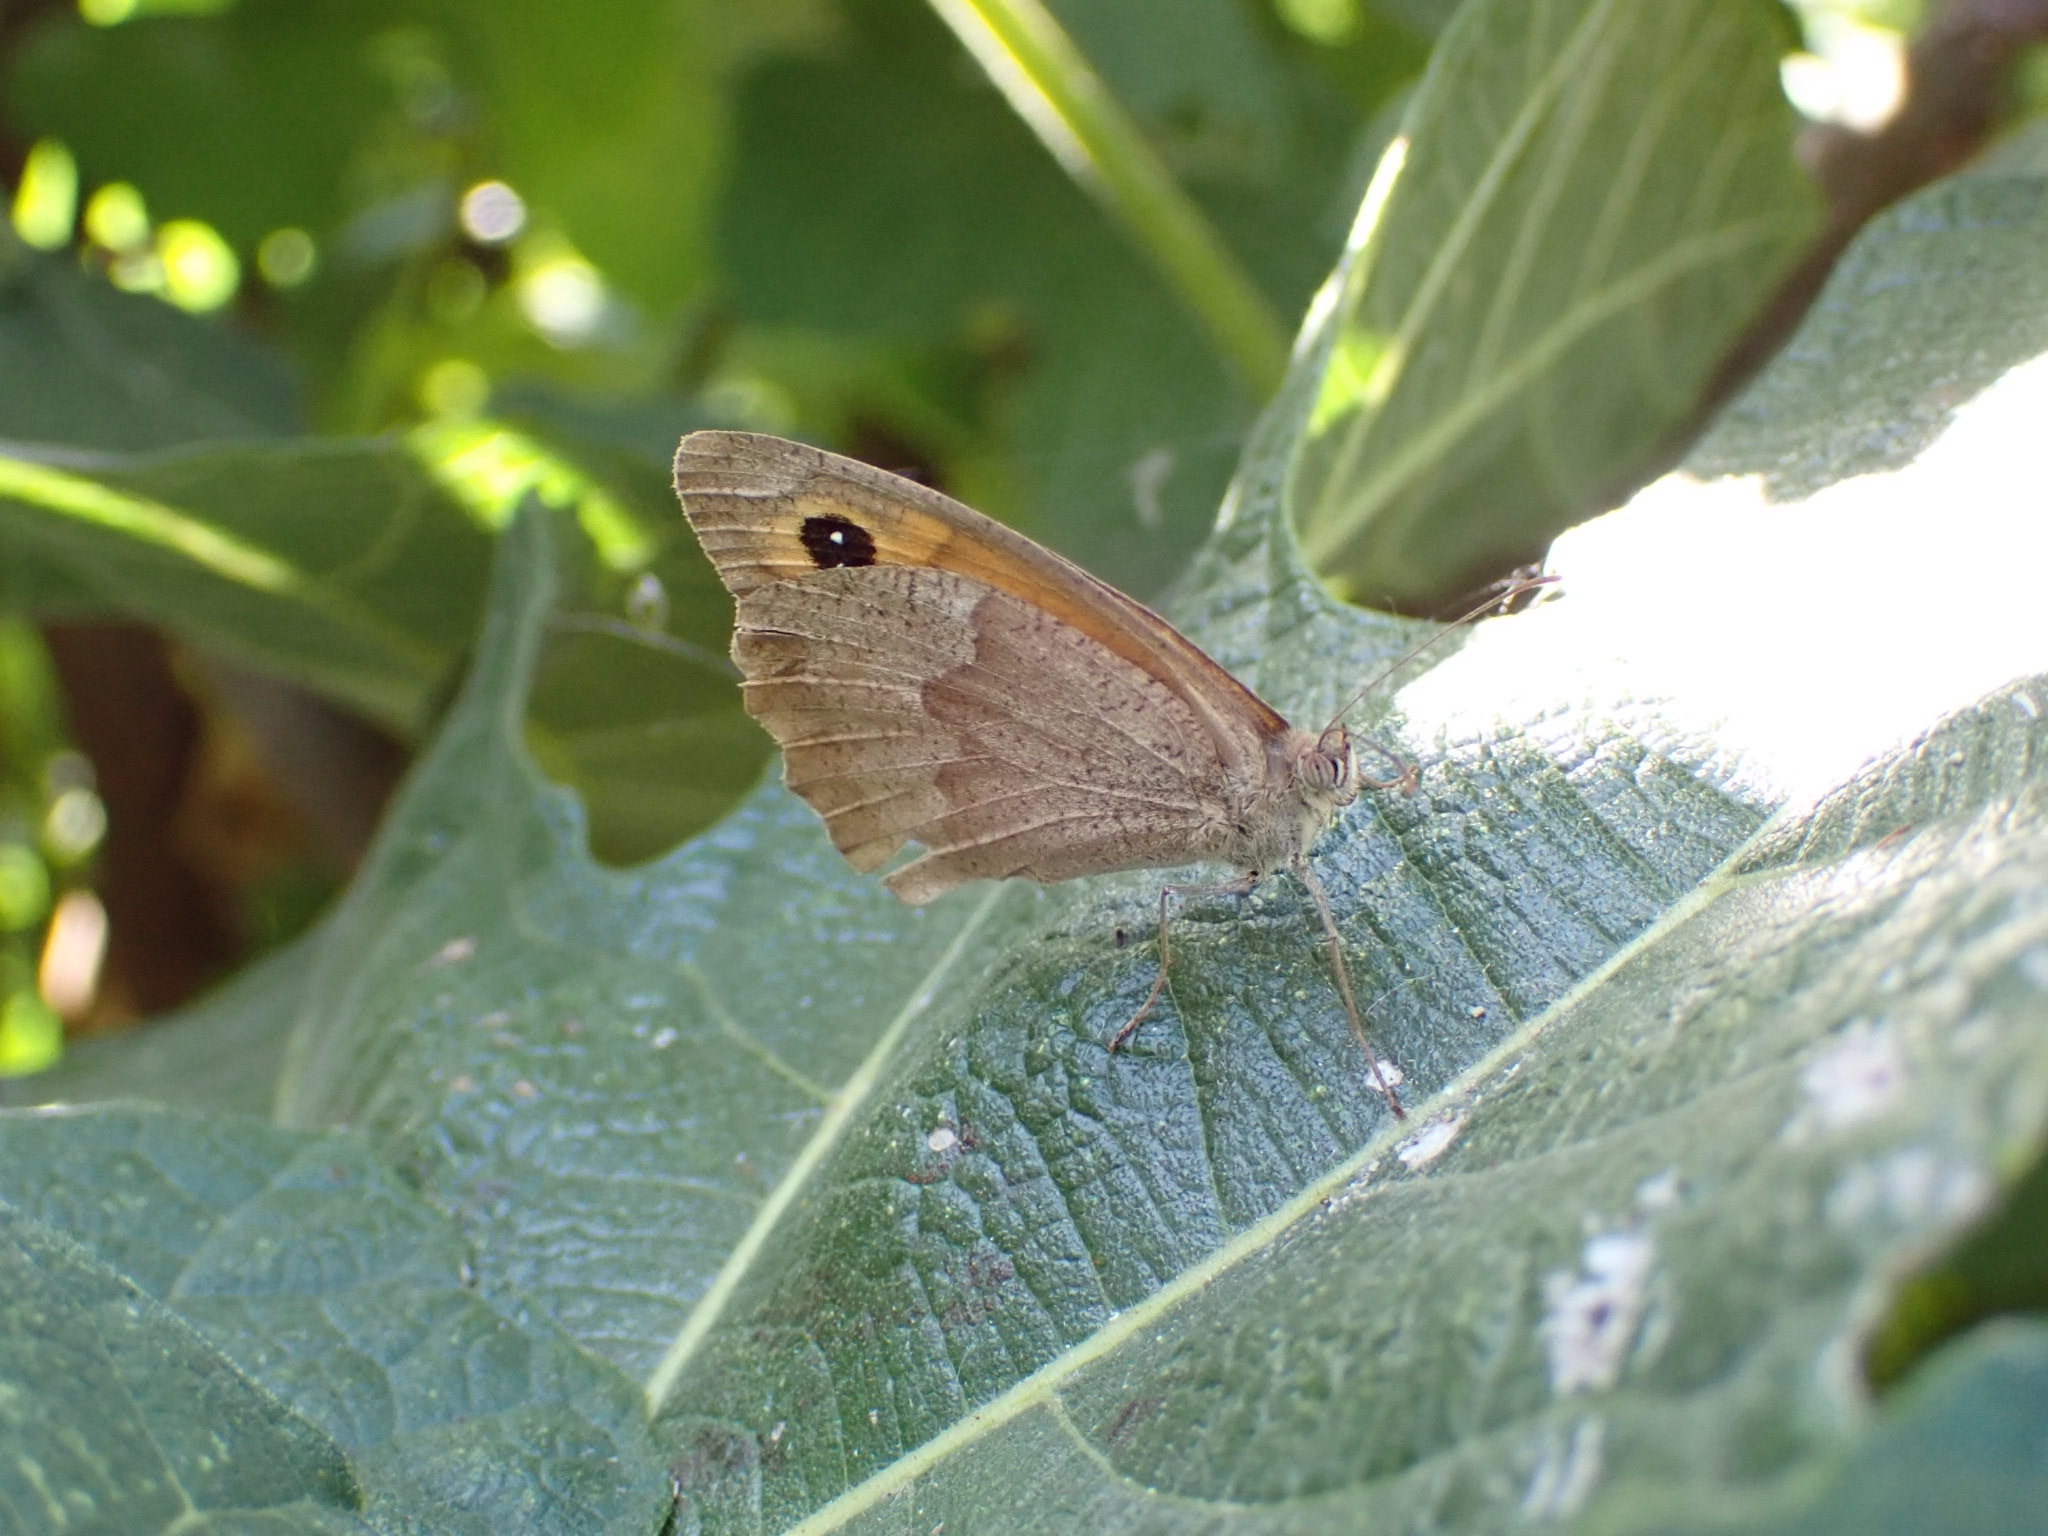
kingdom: Animalia
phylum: Arthropoda
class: Insecta
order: Lepidoptera
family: Nymphalidae
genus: Maniola
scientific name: Maniola jurtina
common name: Meadow brown
